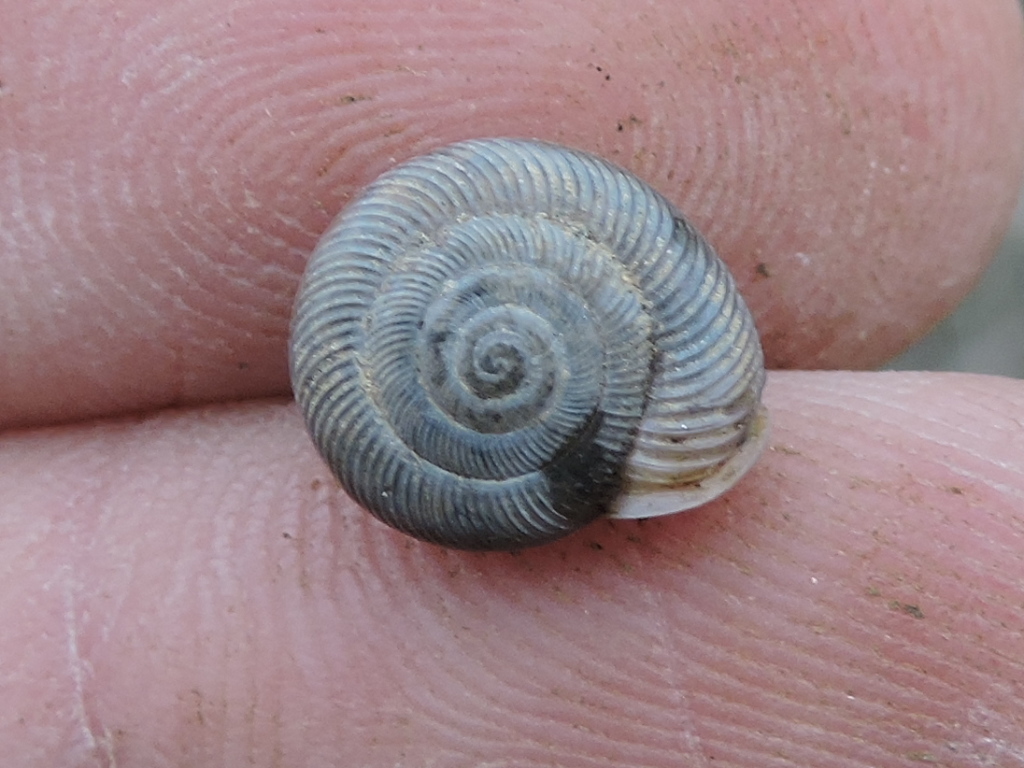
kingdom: Animalia
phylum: Mollusca
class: Gastropoda
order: Stylommatophora
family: Polygyridae
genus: Linisa
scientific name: Linisa texasiana
